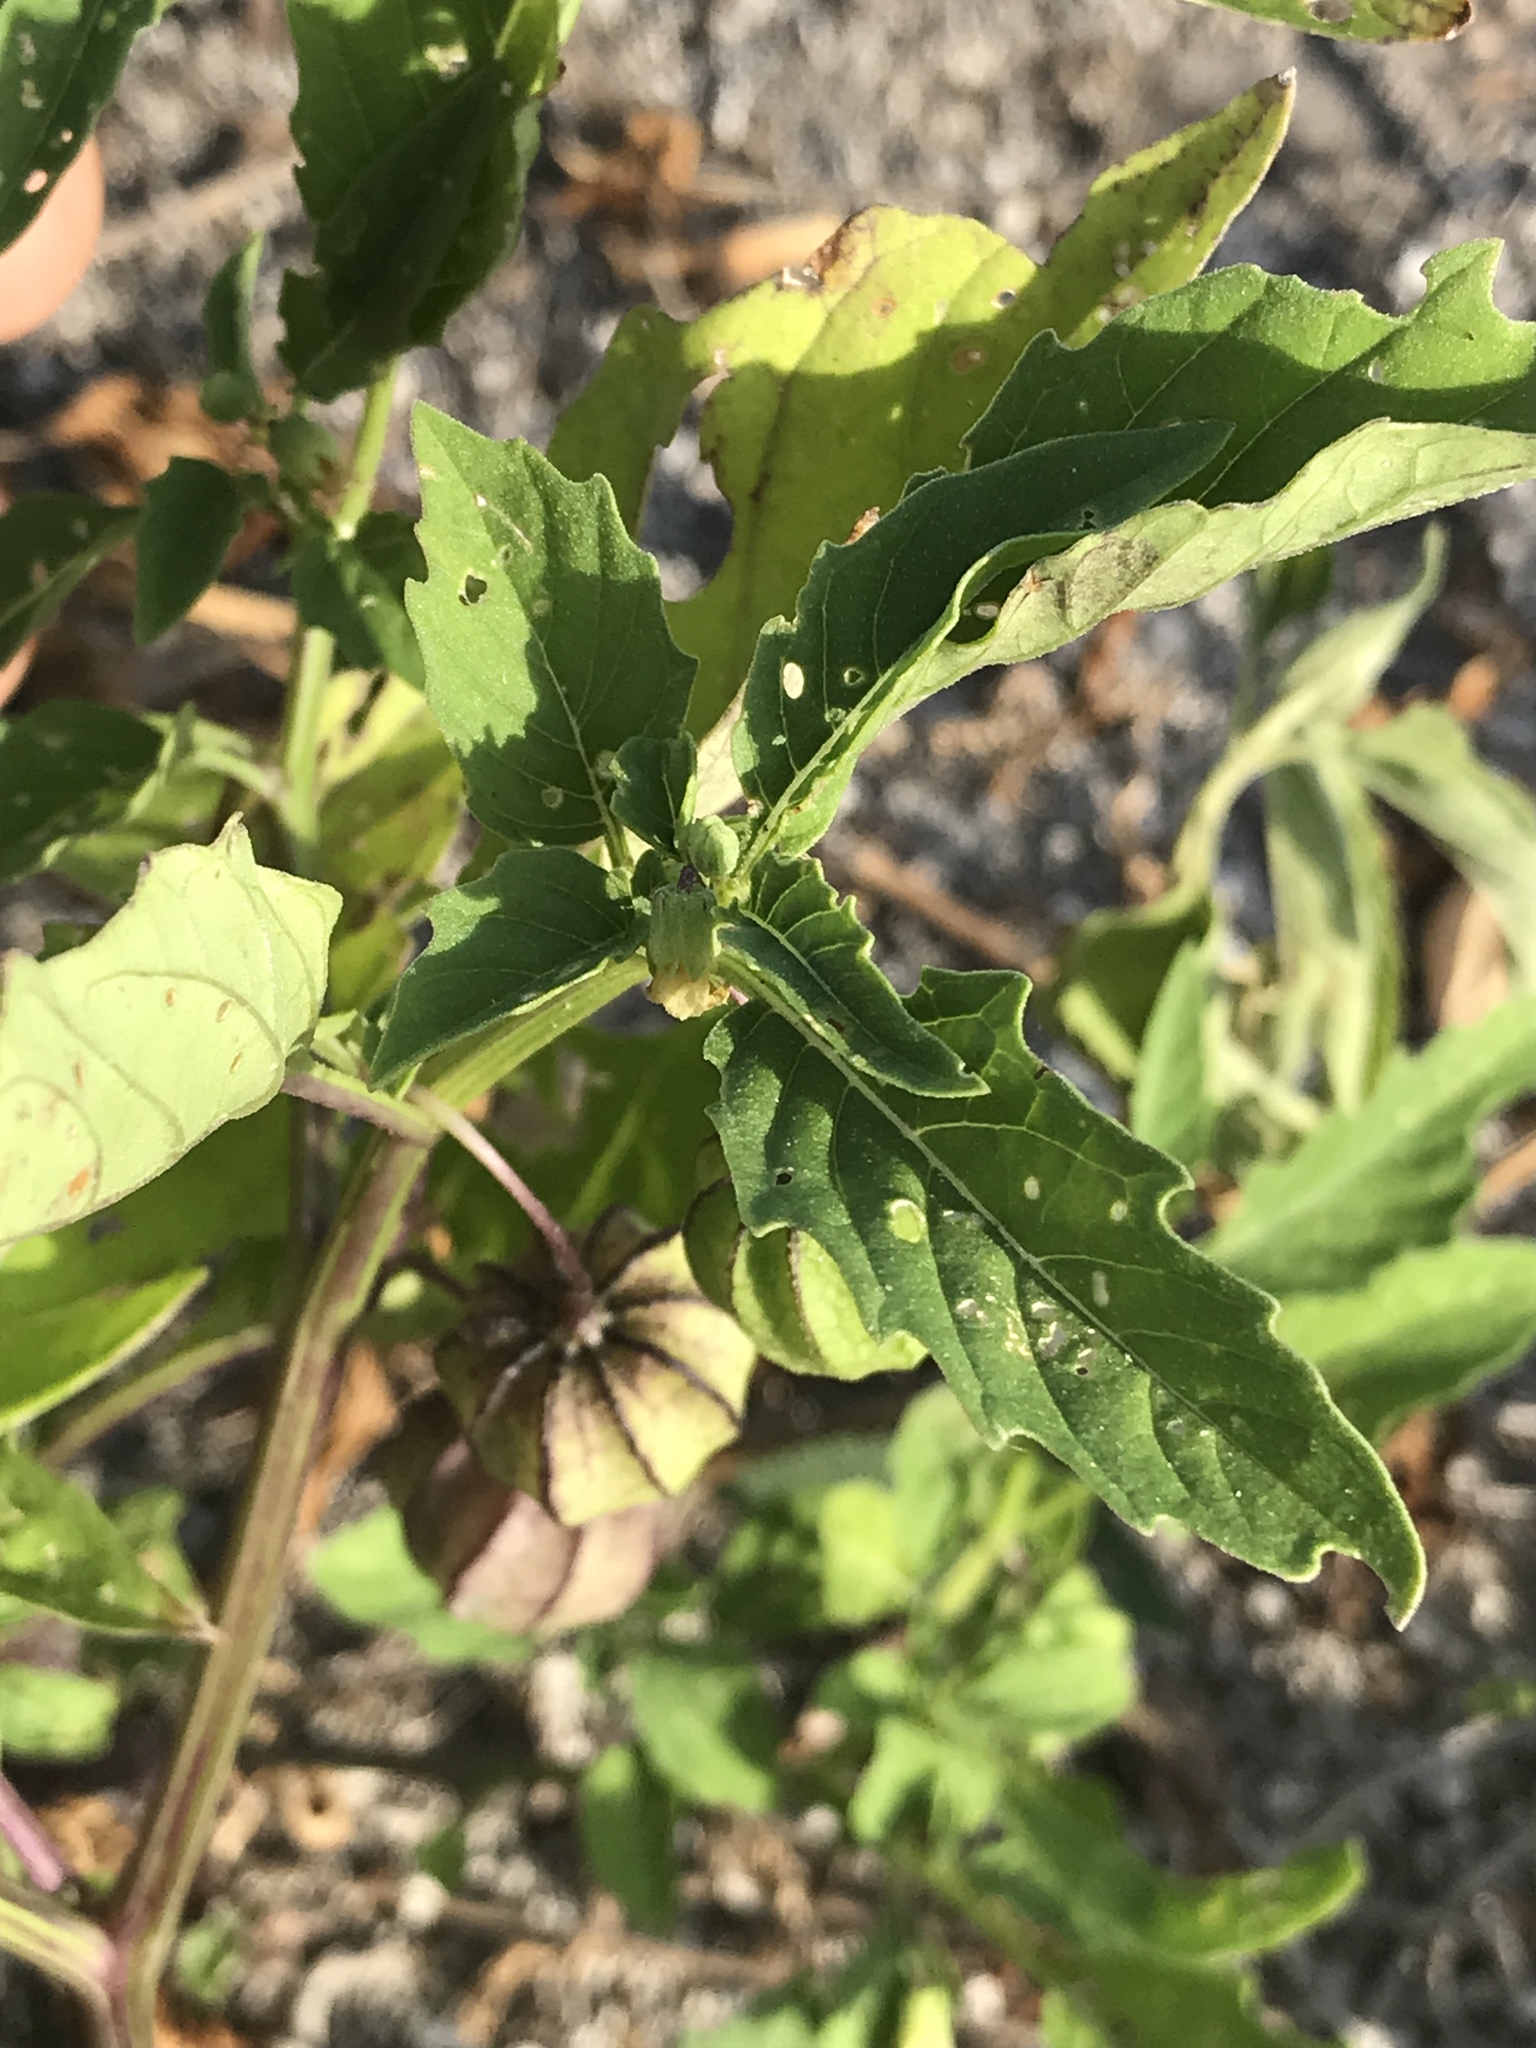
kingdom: Plantae
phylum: Tracheophyta
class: Magnoliopsida
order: Solanales
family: Solanaceae
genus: Physalis
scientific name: Physalis angulata
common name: Angular winter-cherry
